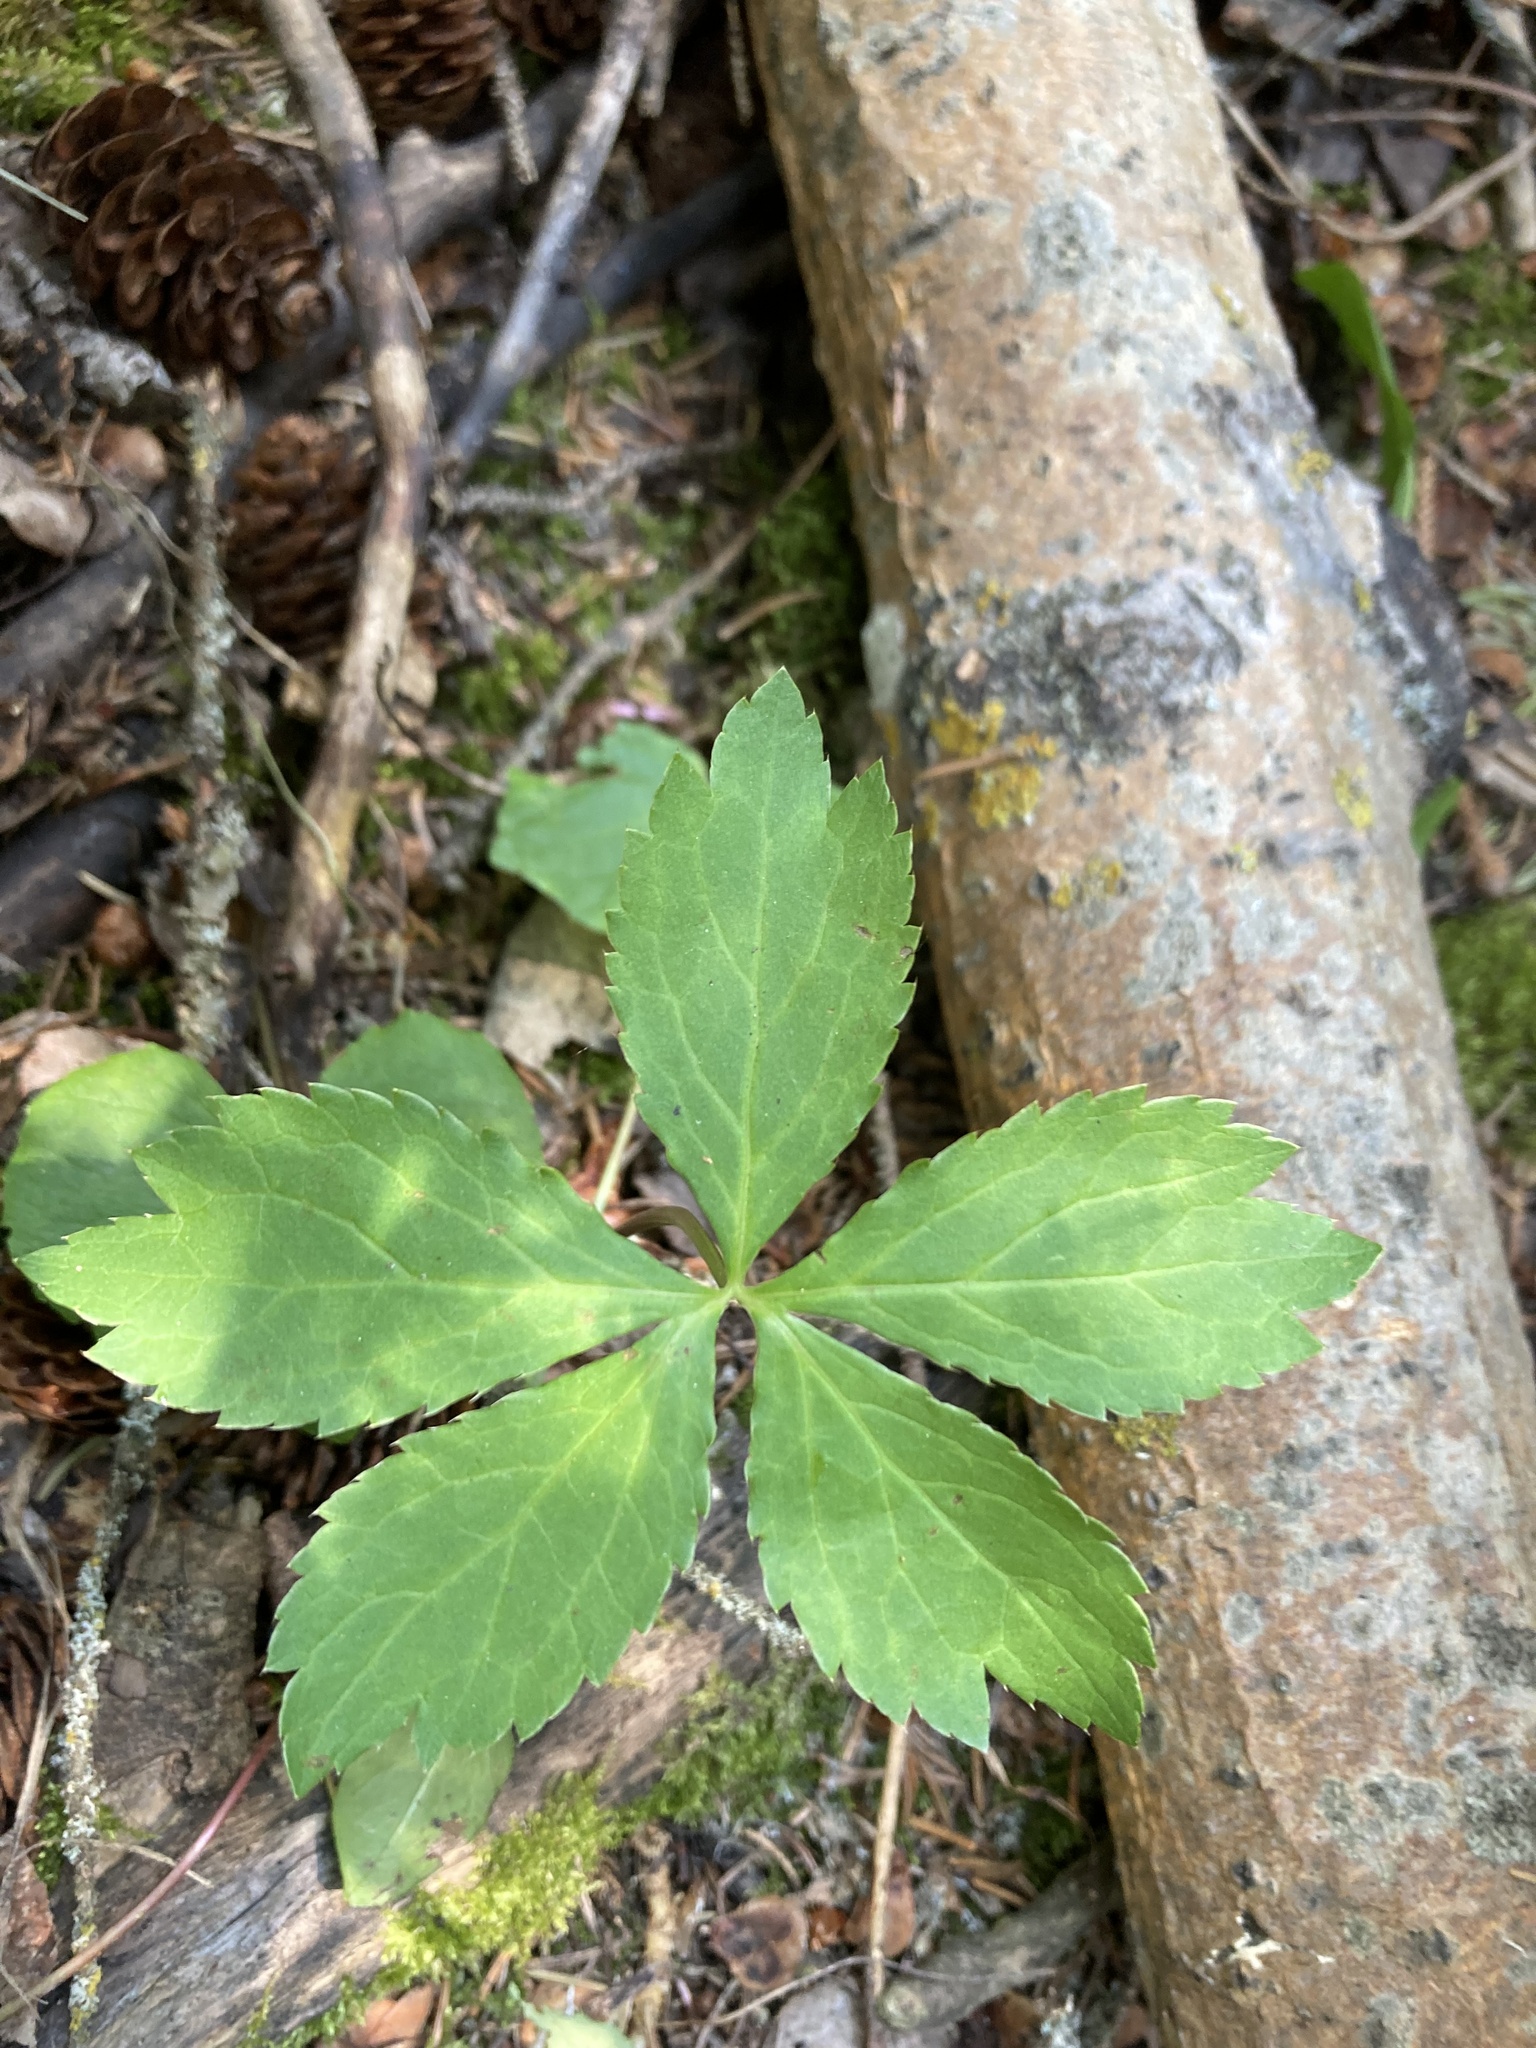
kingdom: Plantae
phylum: Tracheophyta
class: Magnoliopsida
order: Apiales
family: Apiaceae
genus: Sanicula
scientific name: Sanicula marilandica
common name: Black snakeroot
